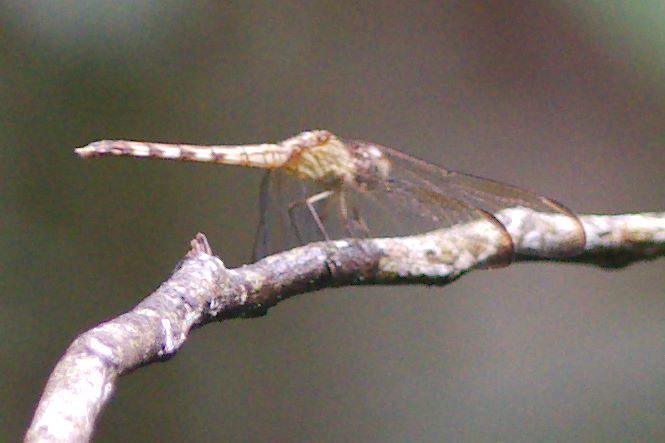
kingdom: Animalia
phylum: Arthropoda
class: Insecta
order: Odonata
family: Libellulidae
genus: Erythrodiplax
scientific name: Erythrodiplax umbrata
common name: Band-winged dragonlet
